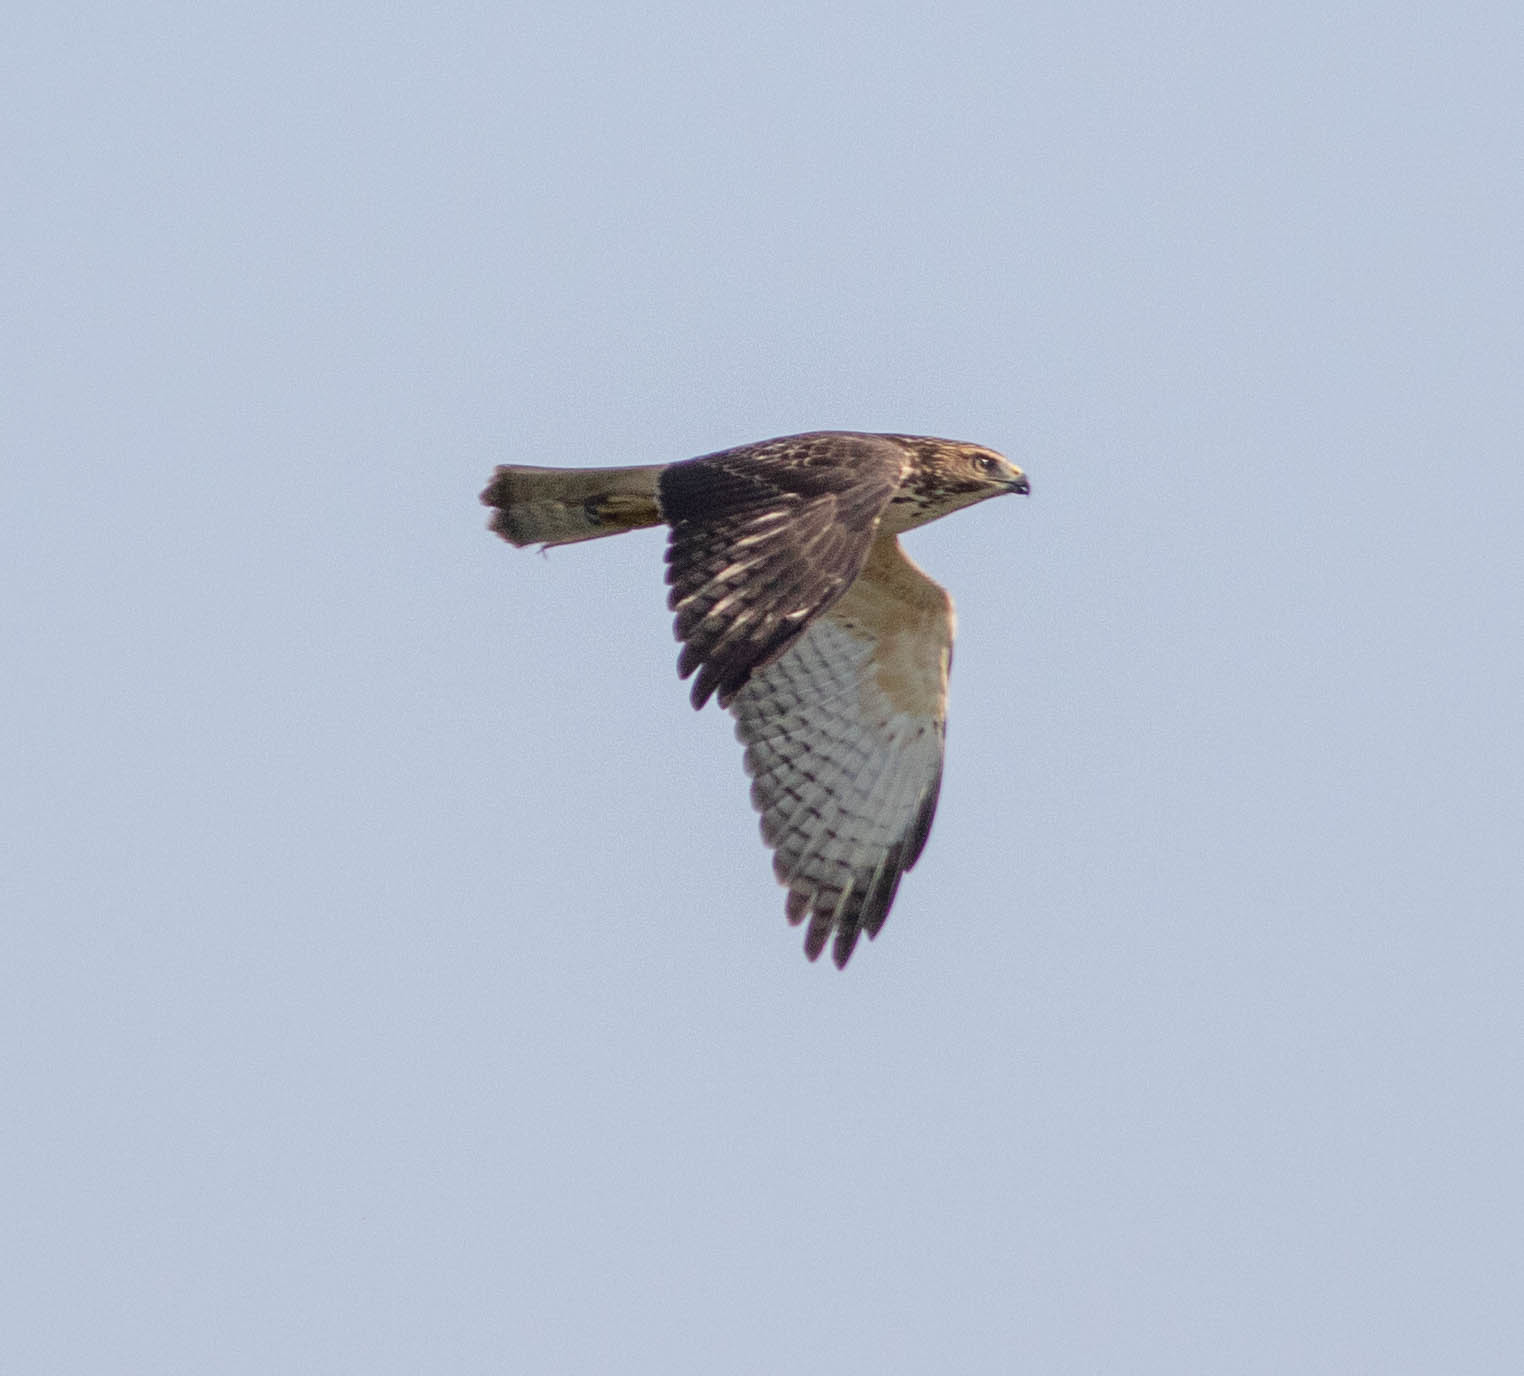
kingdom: Animalia
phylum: Chordata
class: Aves
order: Accipitriformes
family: Accipitridae
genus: Buteo
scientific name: Buteo platypterus
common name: Broad-winged hawk
